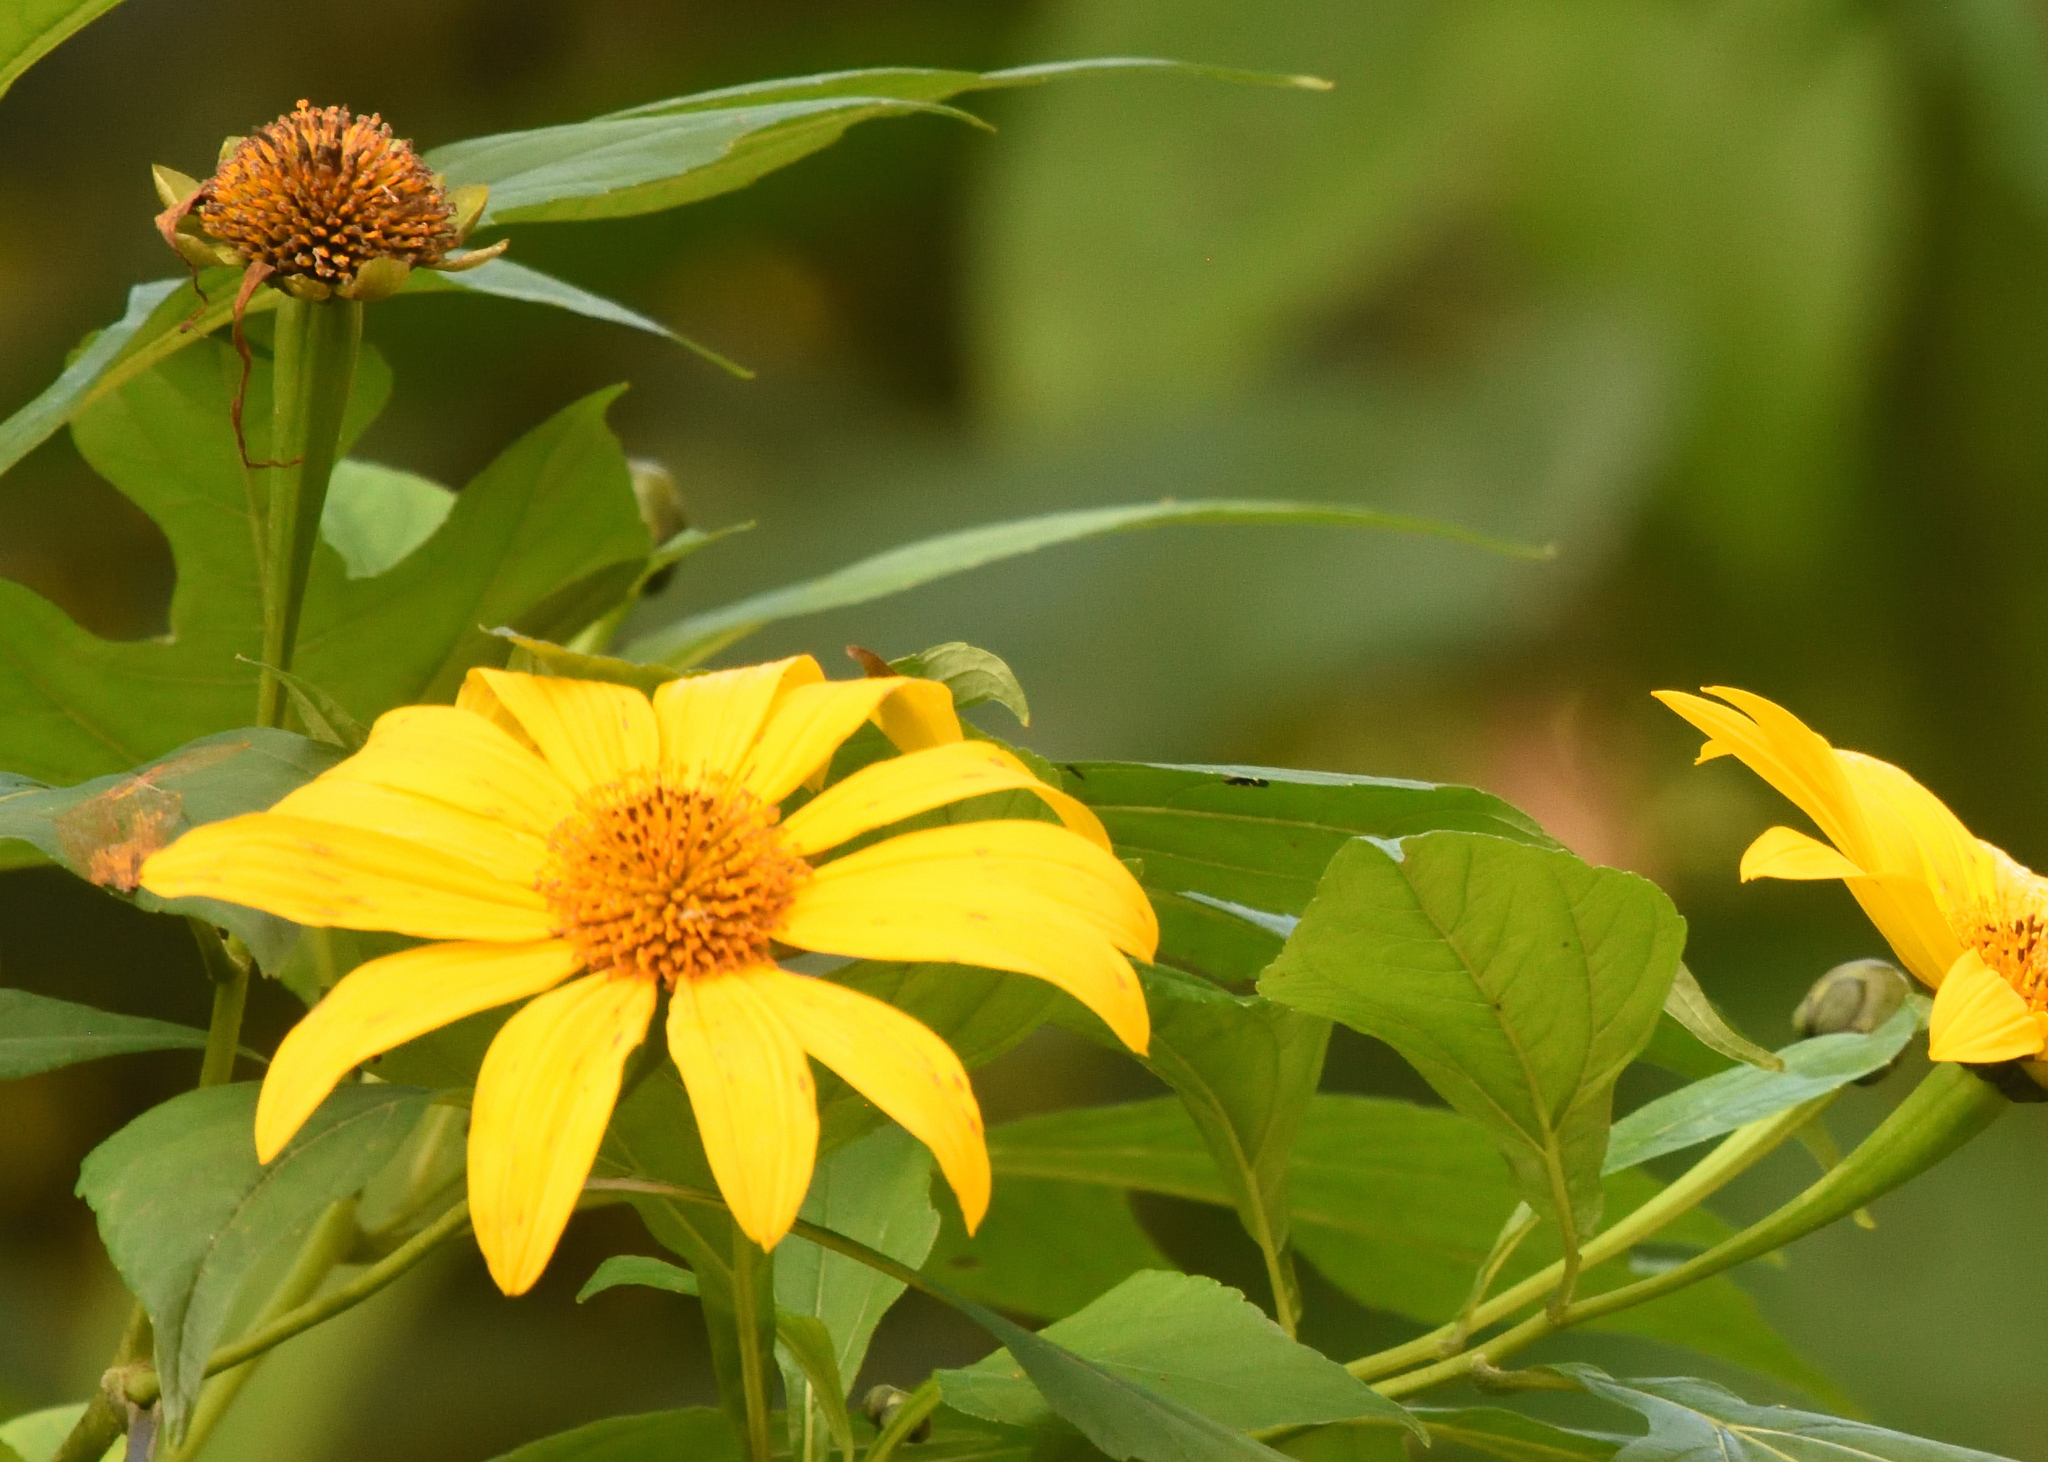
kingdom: Plantae
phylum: Tracheophyta
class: Magnoliopsida
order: Asterales
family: Asteraceae
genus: Tithonia
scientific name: Tithonia diversifolia
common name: Tree marigold
